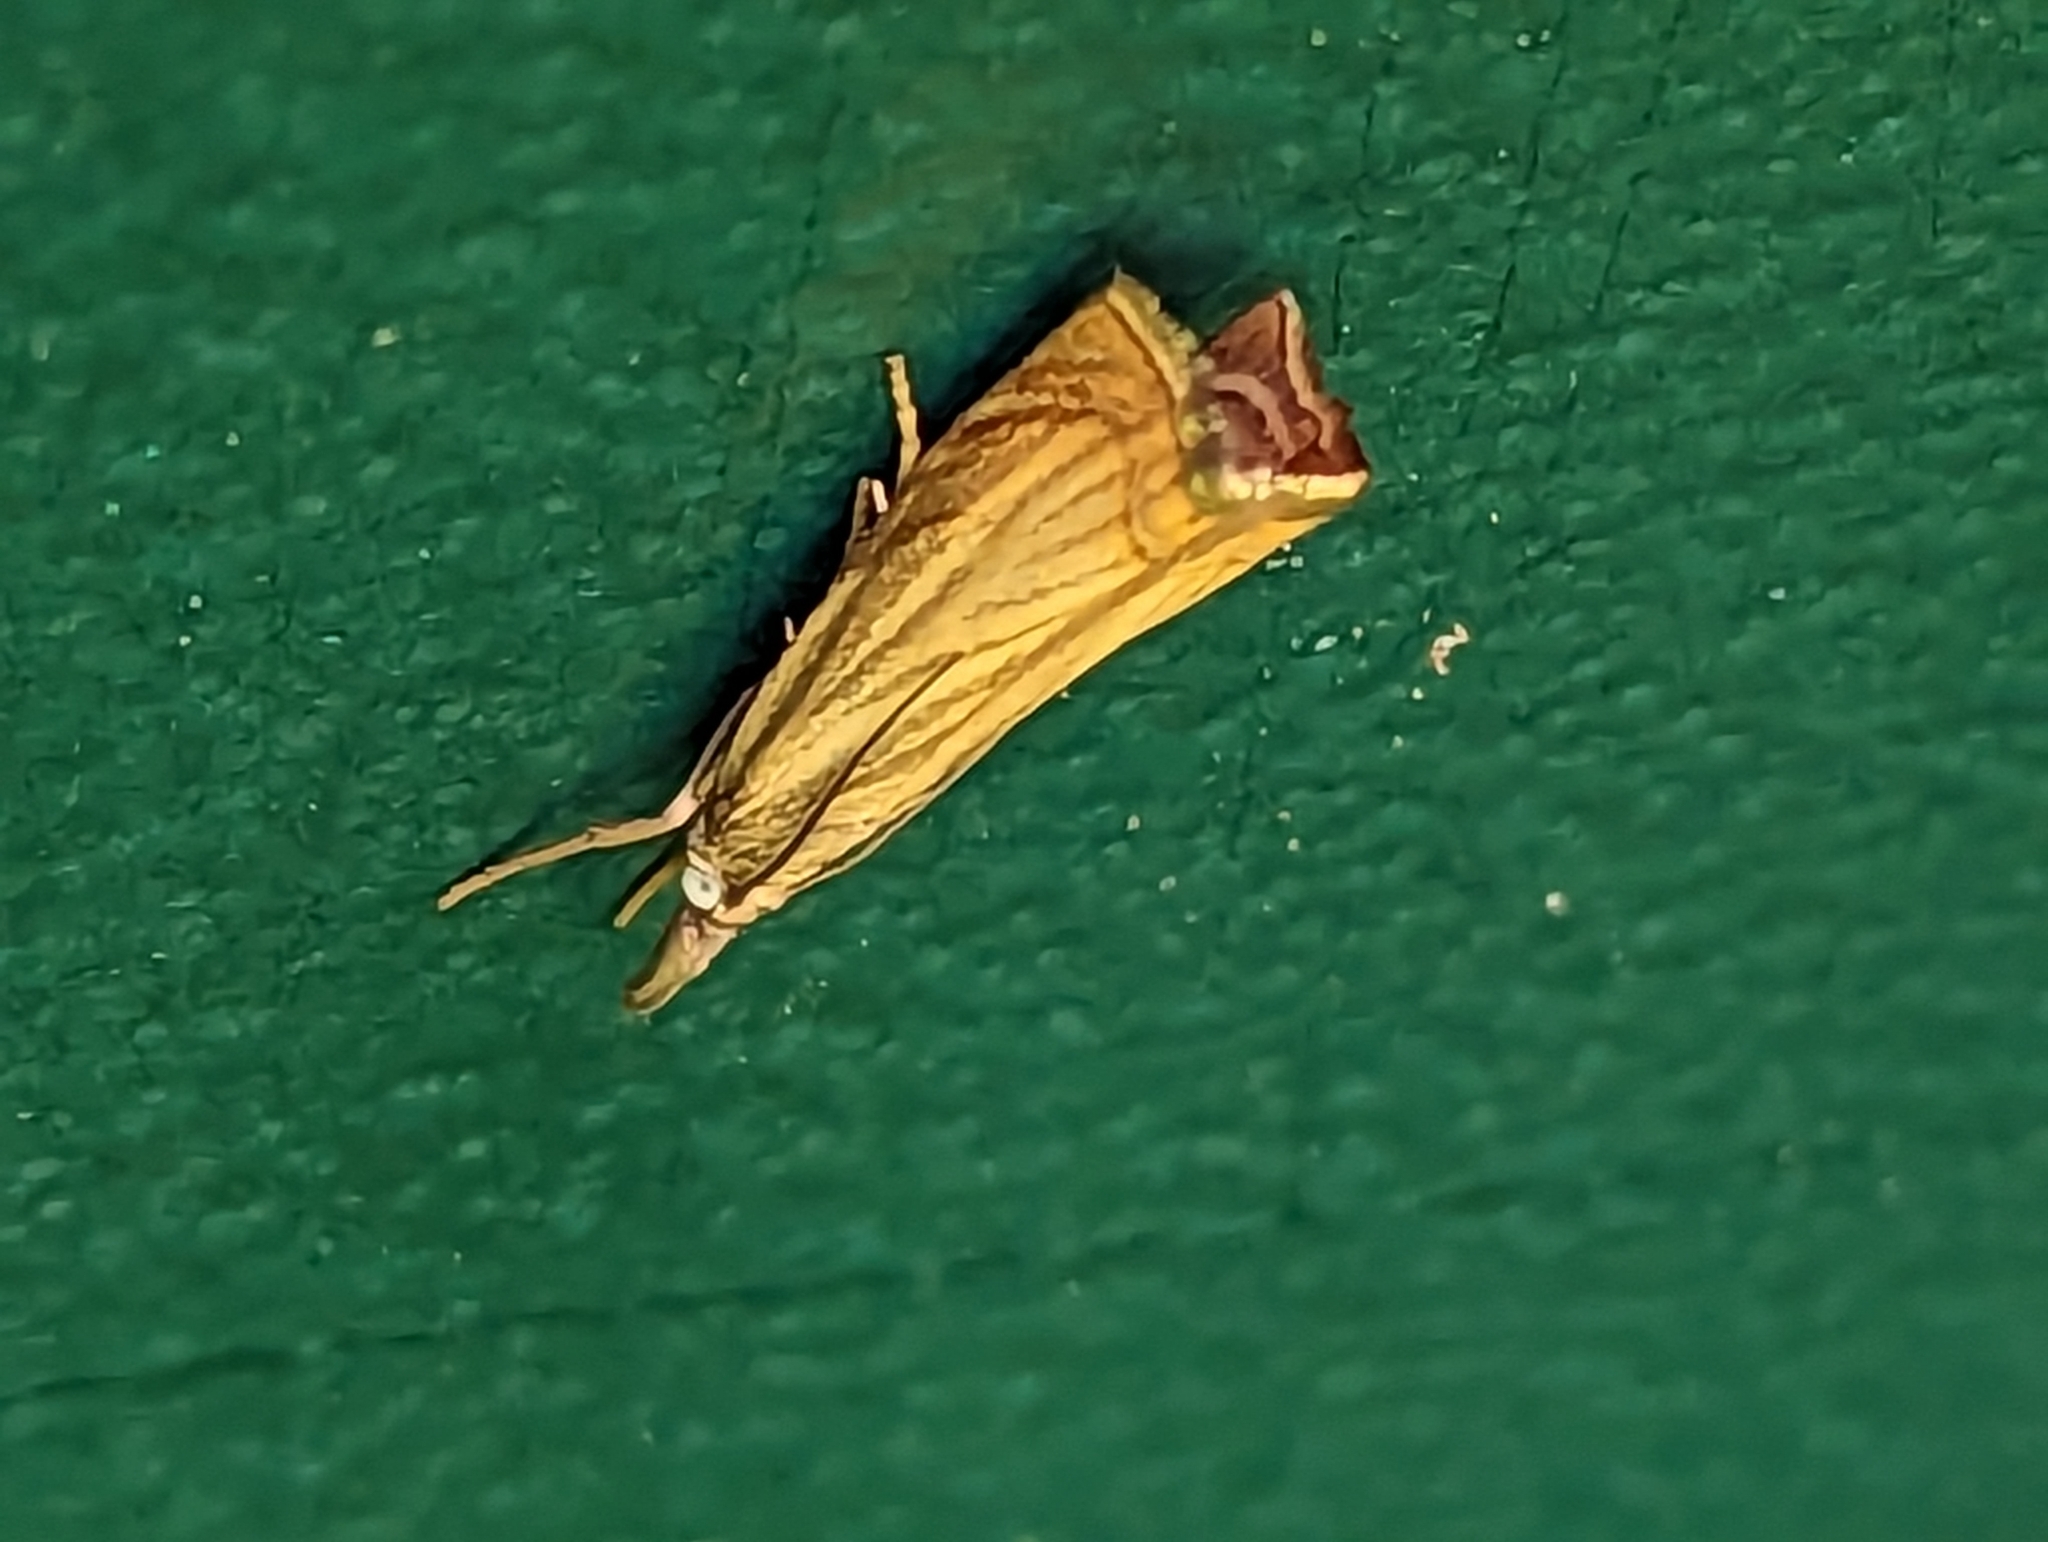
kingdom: Animalia
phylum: Arthropoda
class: Insecta
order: Lepidoptera
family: Crambidae
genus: Chrysoteuchia
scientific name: Chrysoteuchia culmella
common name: Garden grass-veneer
